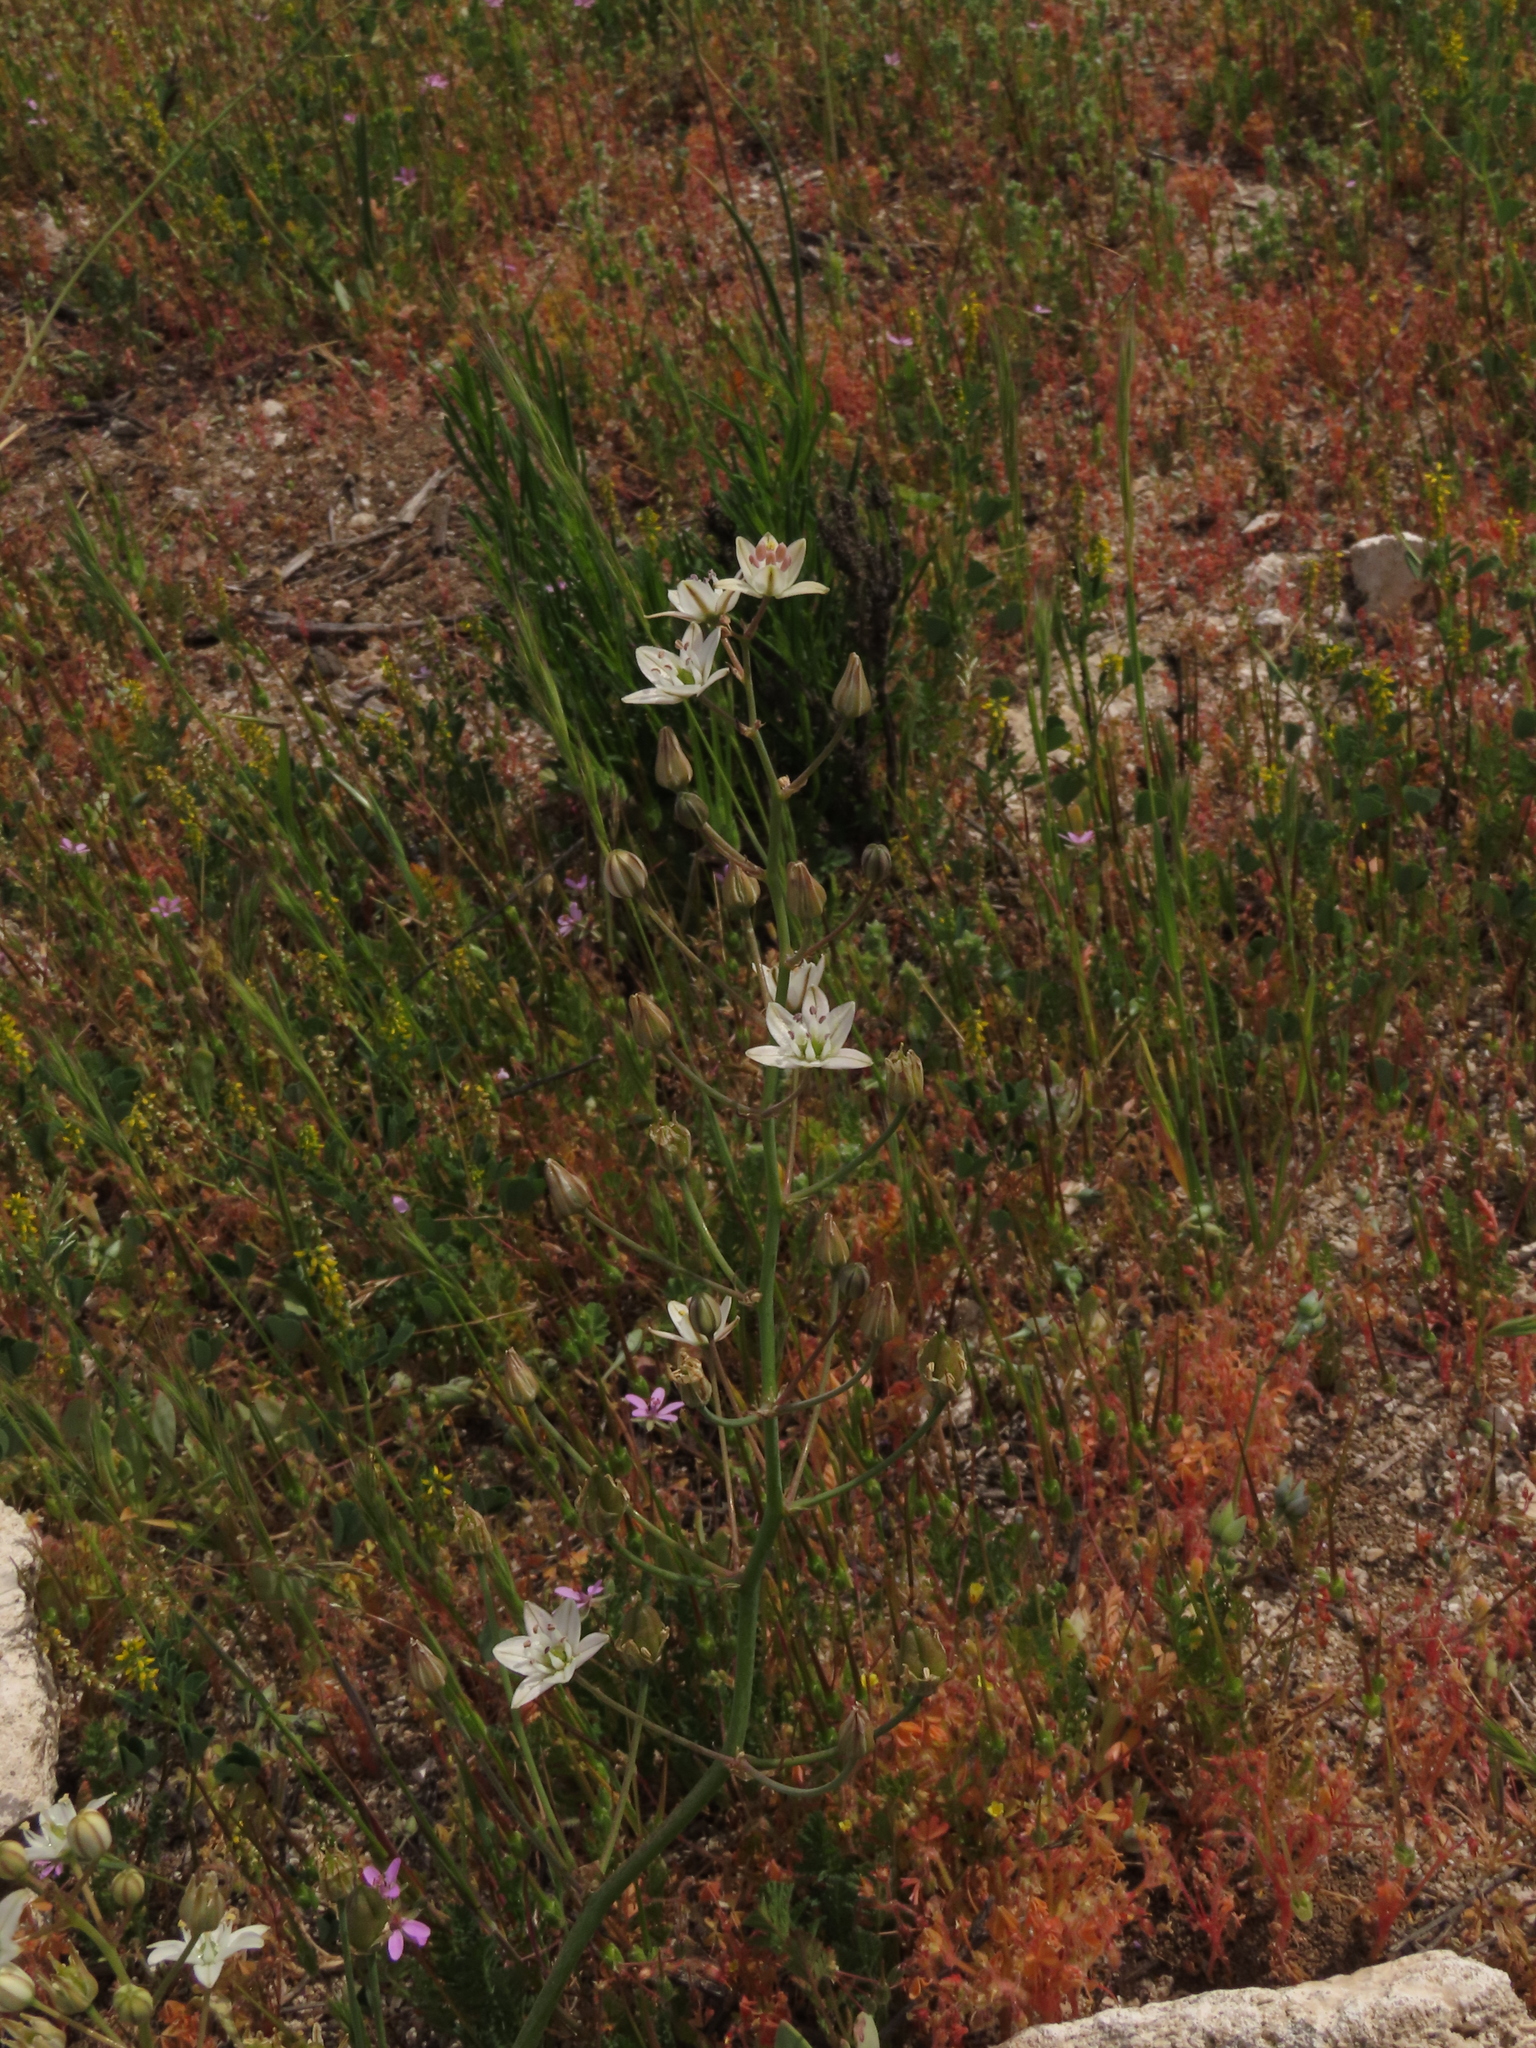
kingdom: Plantae
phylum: Tracheophyta
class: Liliopsida
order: Asparagales
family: Asparagaceae
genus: Oziroe
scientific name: Oziroe biflora
